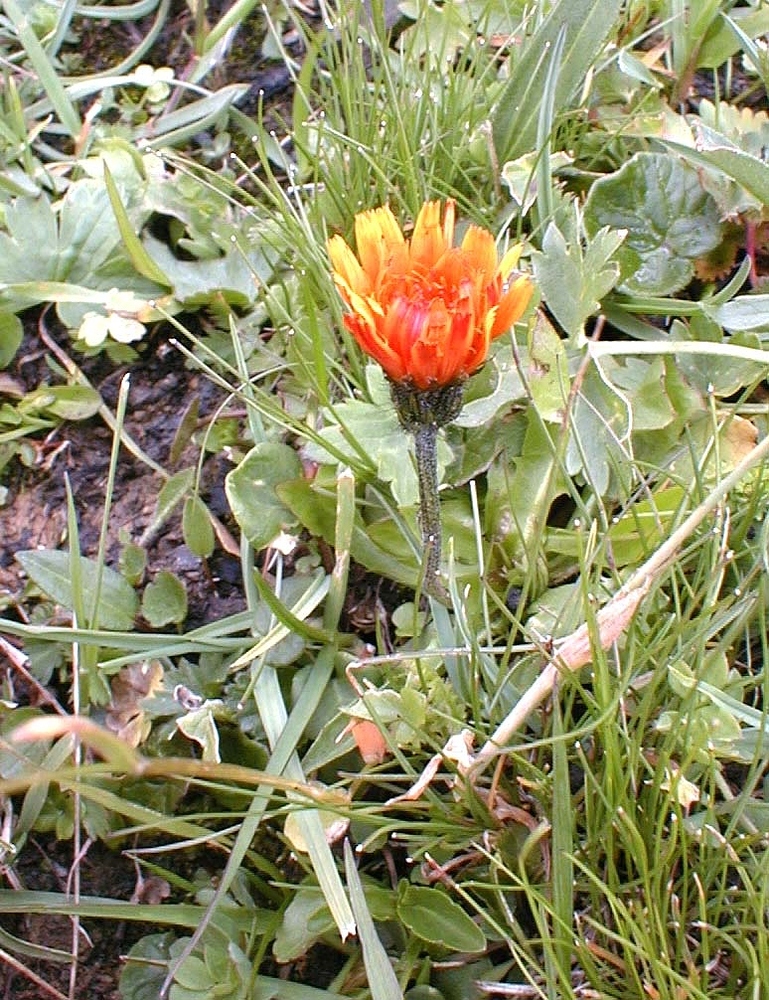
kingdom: Plantae
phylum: Tracheophyta
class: Magnoliopsida
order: Asterales
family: Asteraceae
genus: Crepis
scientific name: Crepis aurea
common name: Golden hawk's-beard
